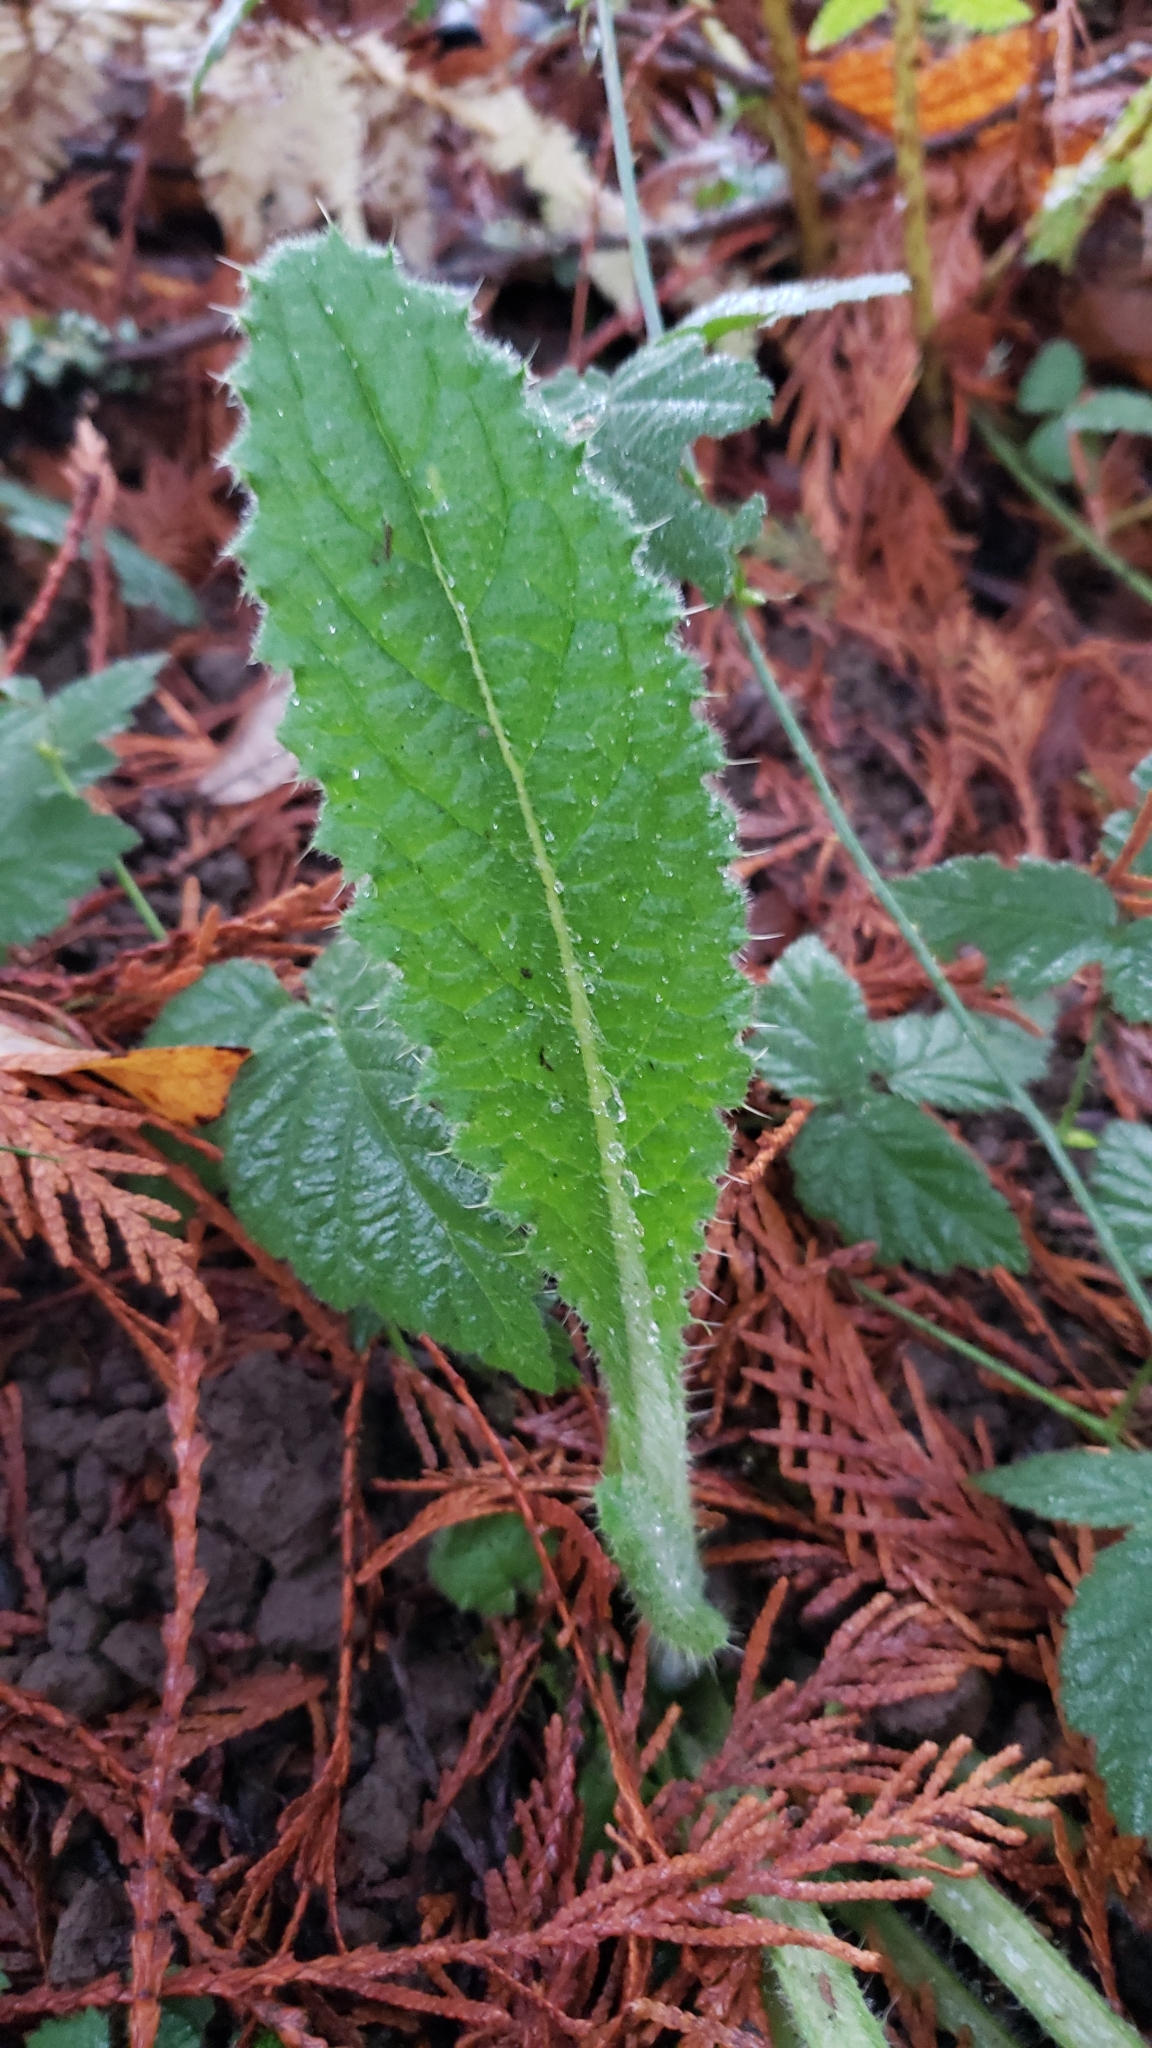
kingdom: Plantae
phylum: Tracheophyta
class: Magnoliopsida
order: Asterales
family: Asteraceae
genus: Cirsium
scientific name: Cirsium vulgare
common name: Bull thistle
